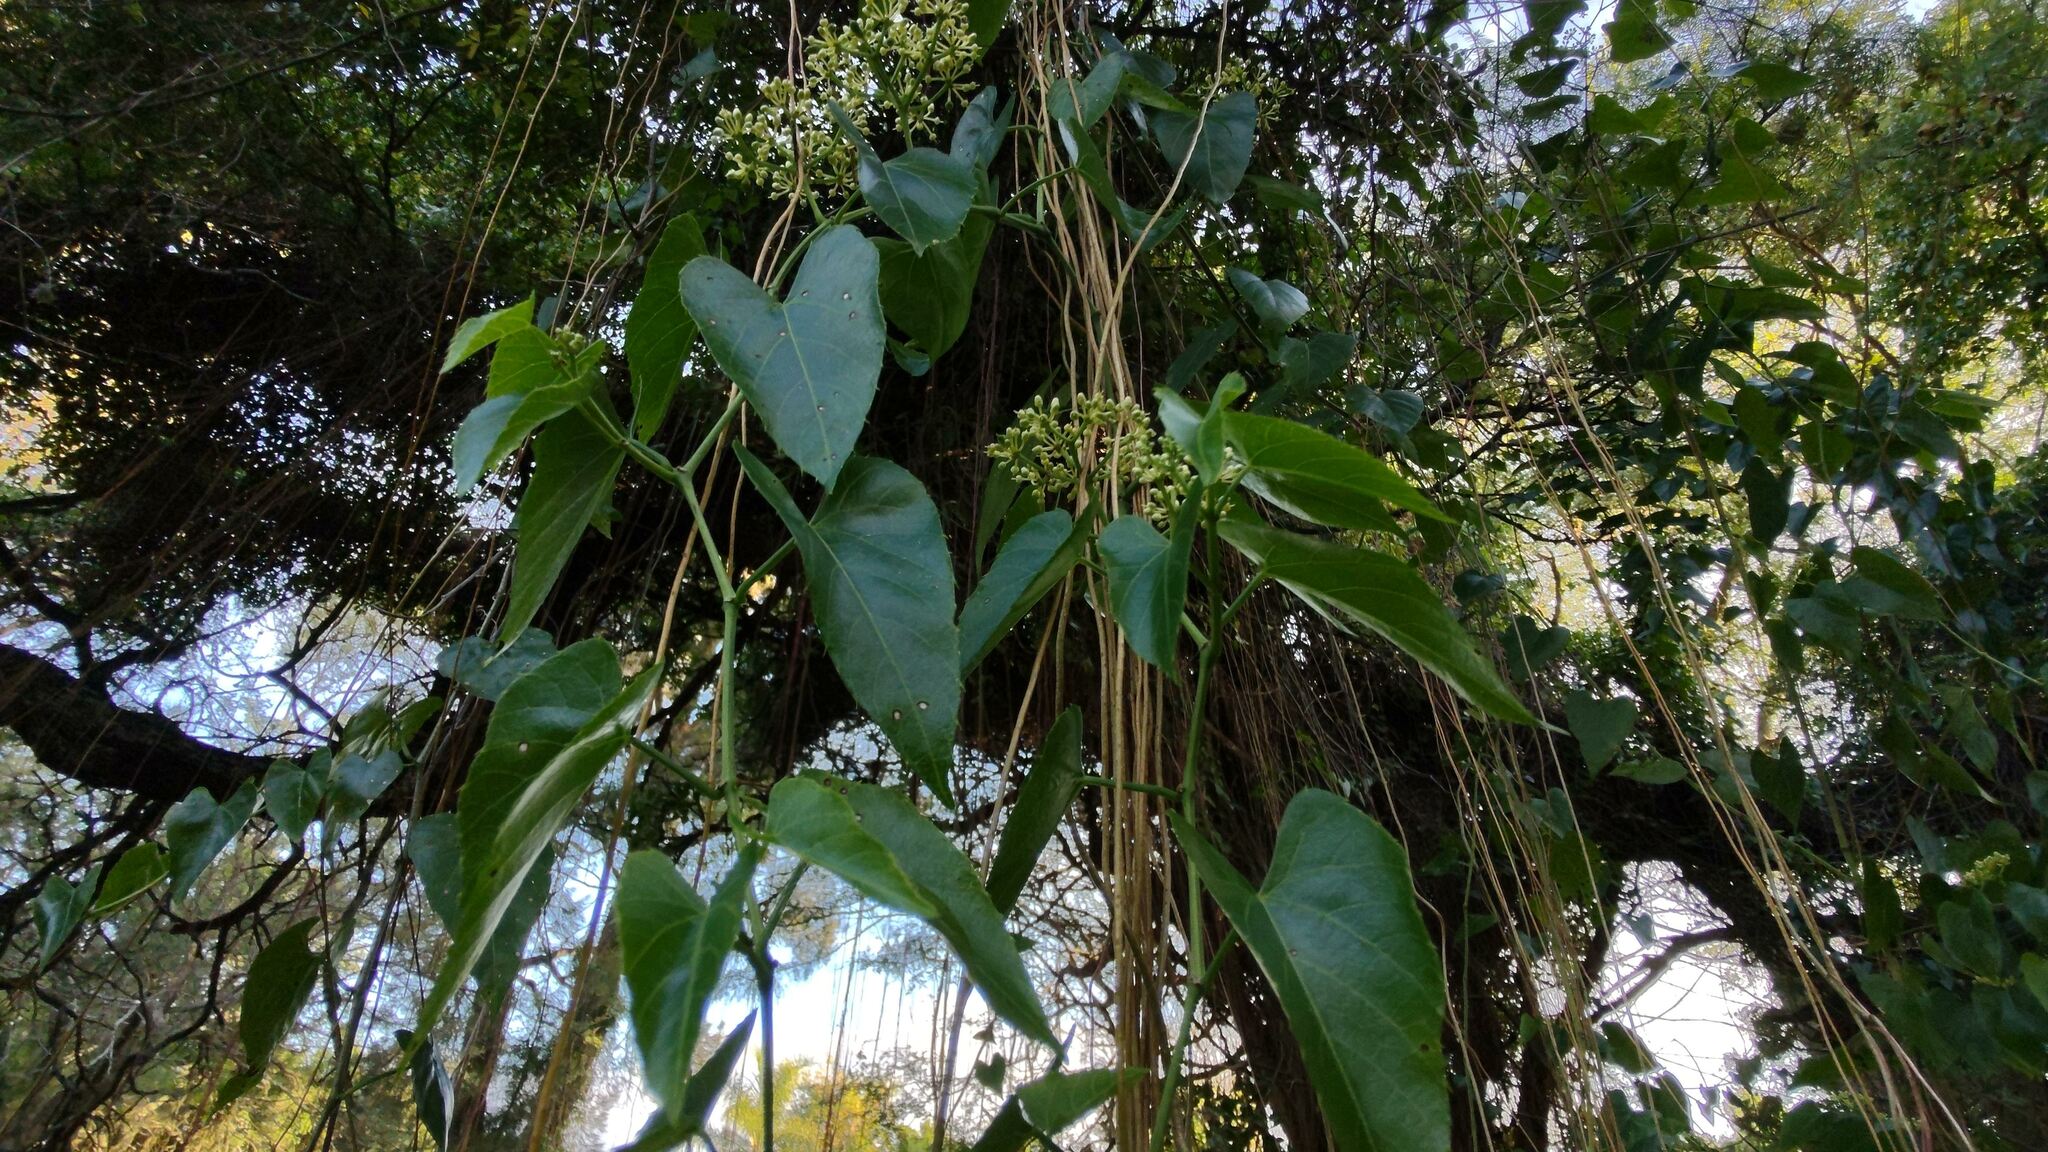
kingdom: Plantae
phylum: Tracheophyta
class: Magnoliopsida
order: Vitales
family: Vitaceae
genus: Cissus
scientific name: Cissus verticillata
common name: Princess vine
